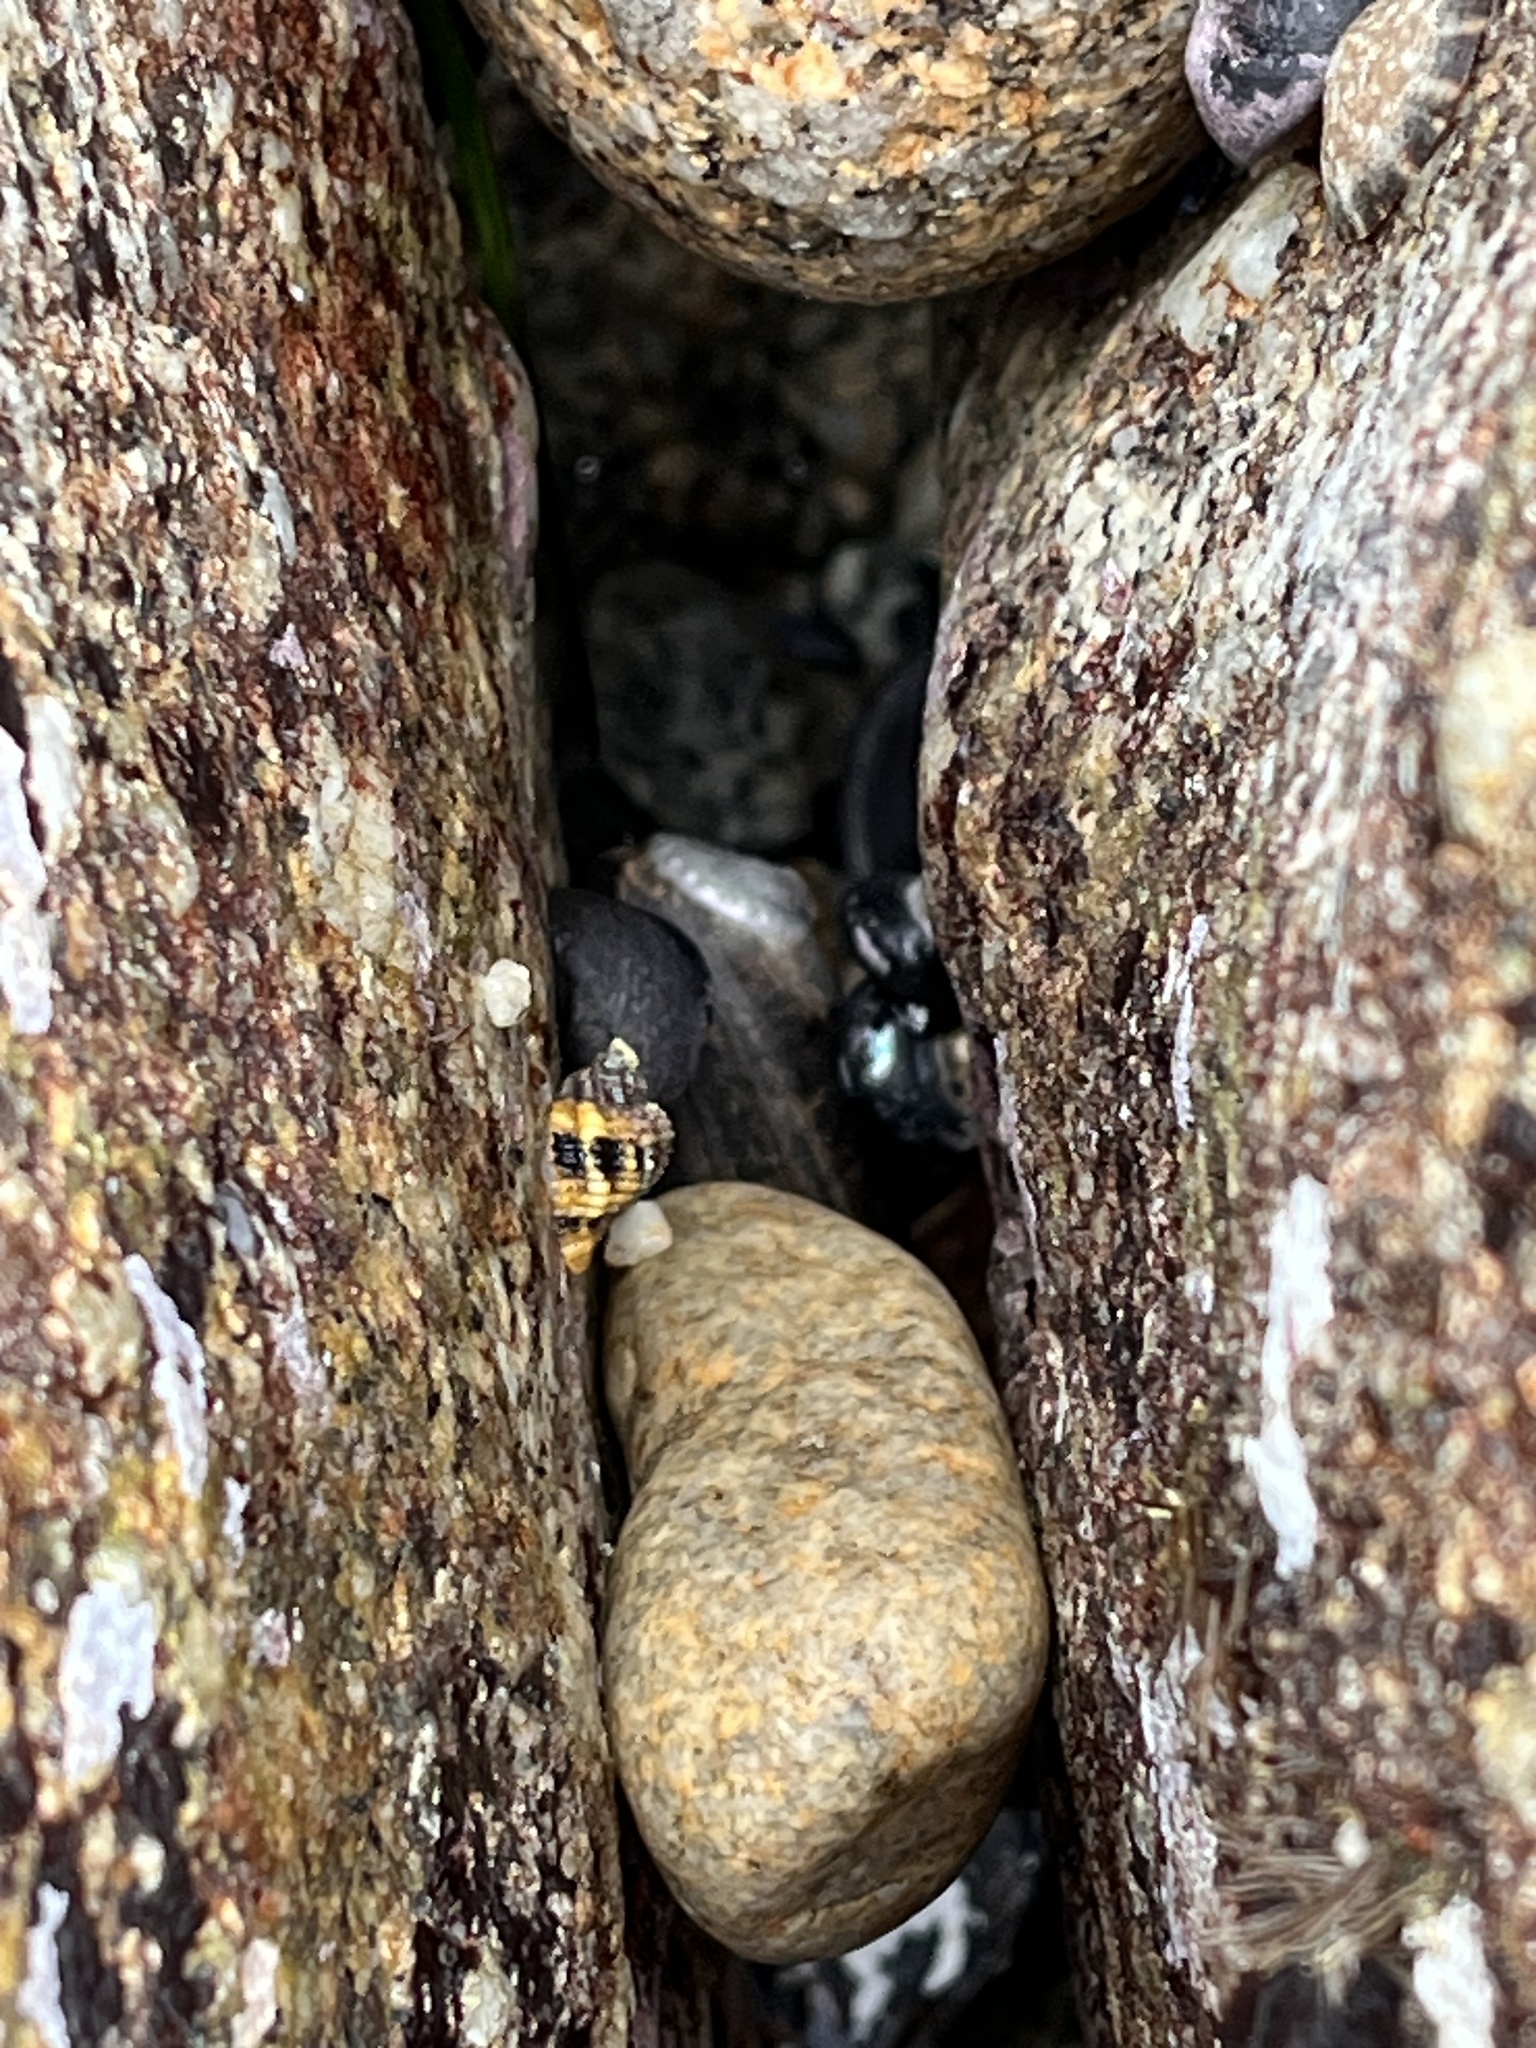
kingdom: Animalia
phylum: Mollusca
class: Gastropoda
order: Lepetellida
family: Haliotidae
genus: Haliotis
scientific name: Haliotis cracherodii
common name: Black abalone
